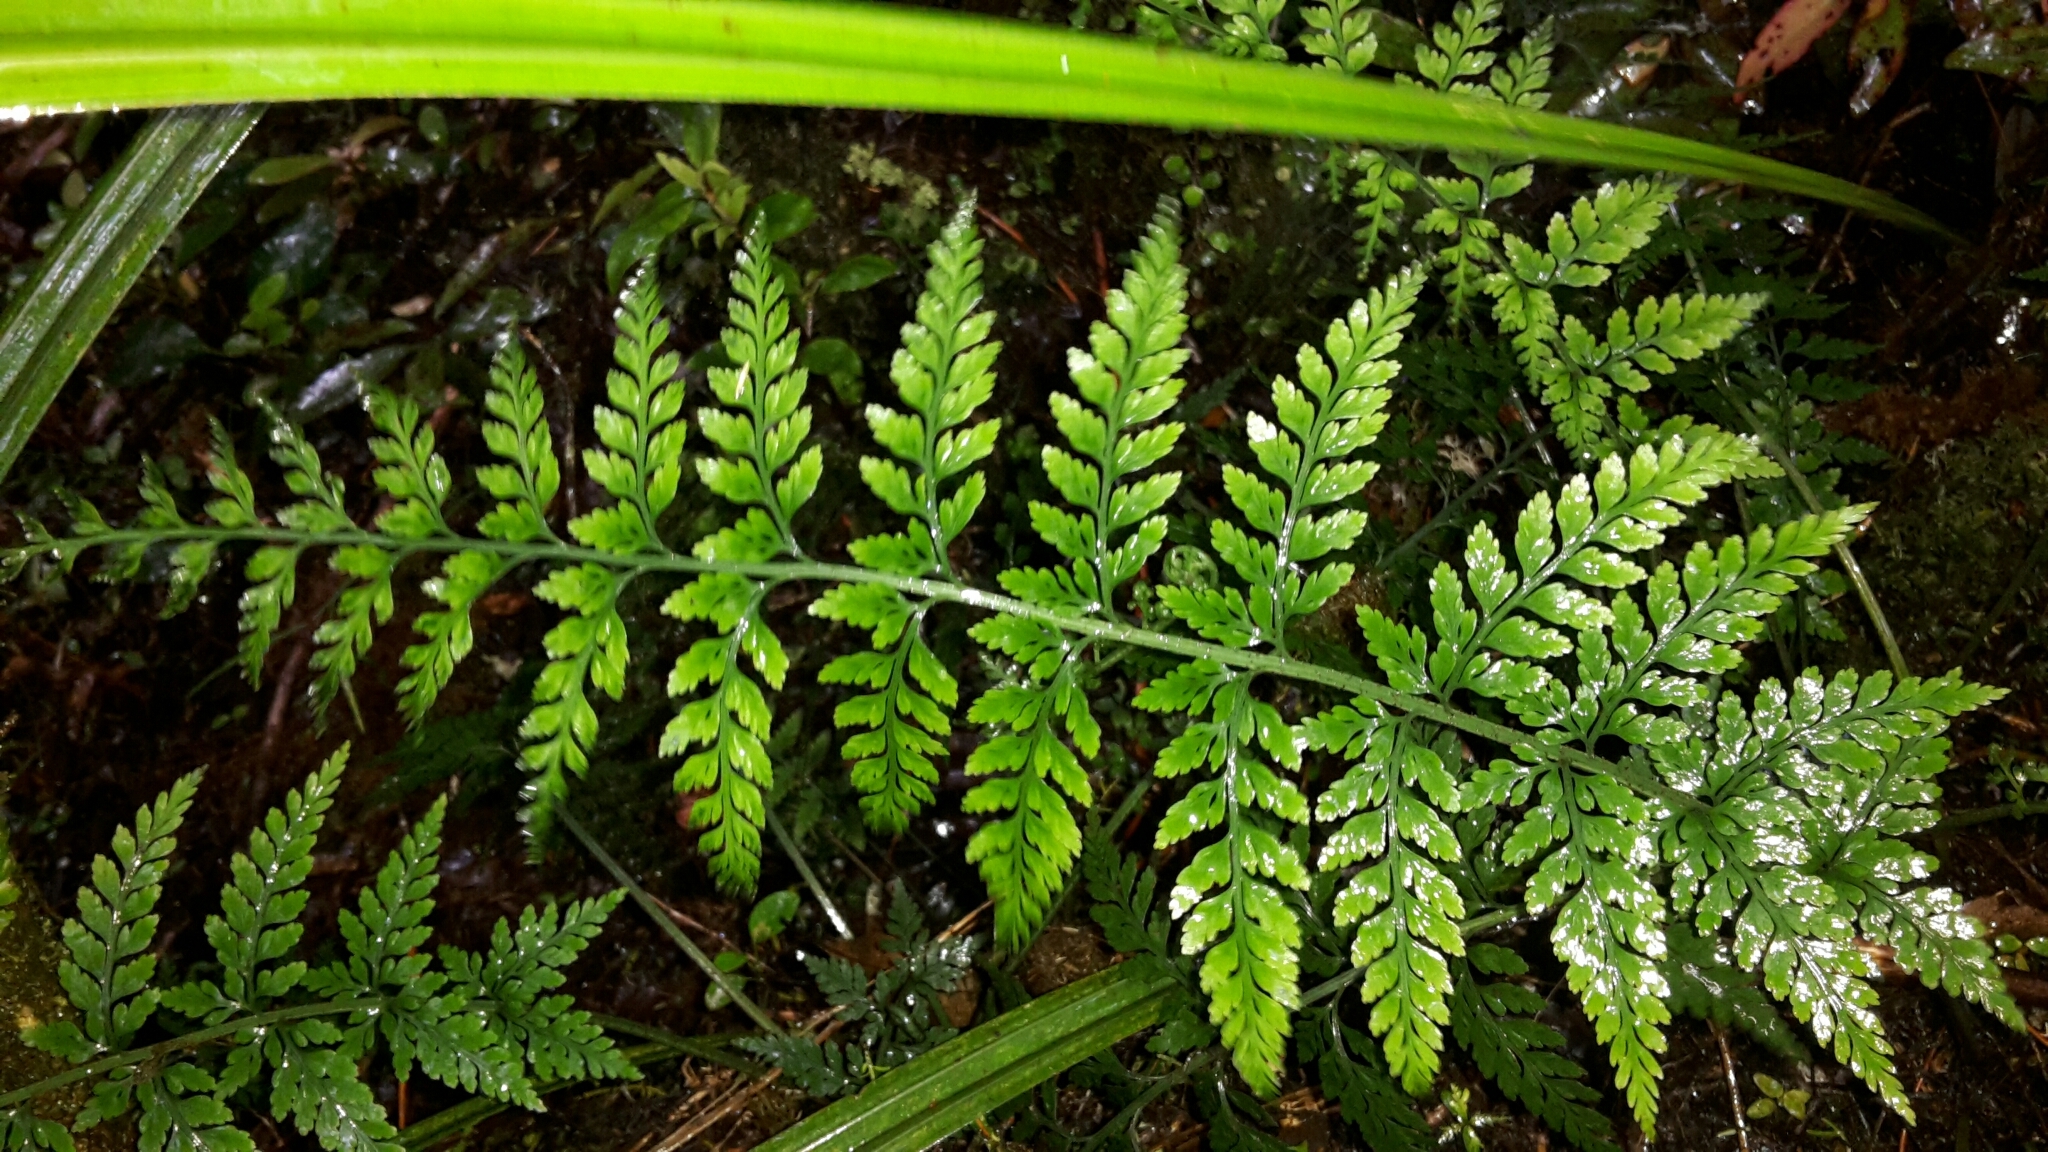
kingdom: Plantae
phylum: Tracheophyta
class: Polypodiopsida
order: Polypodiales
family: Aspleniaceae
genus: Asplenium
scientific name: Asplenium
